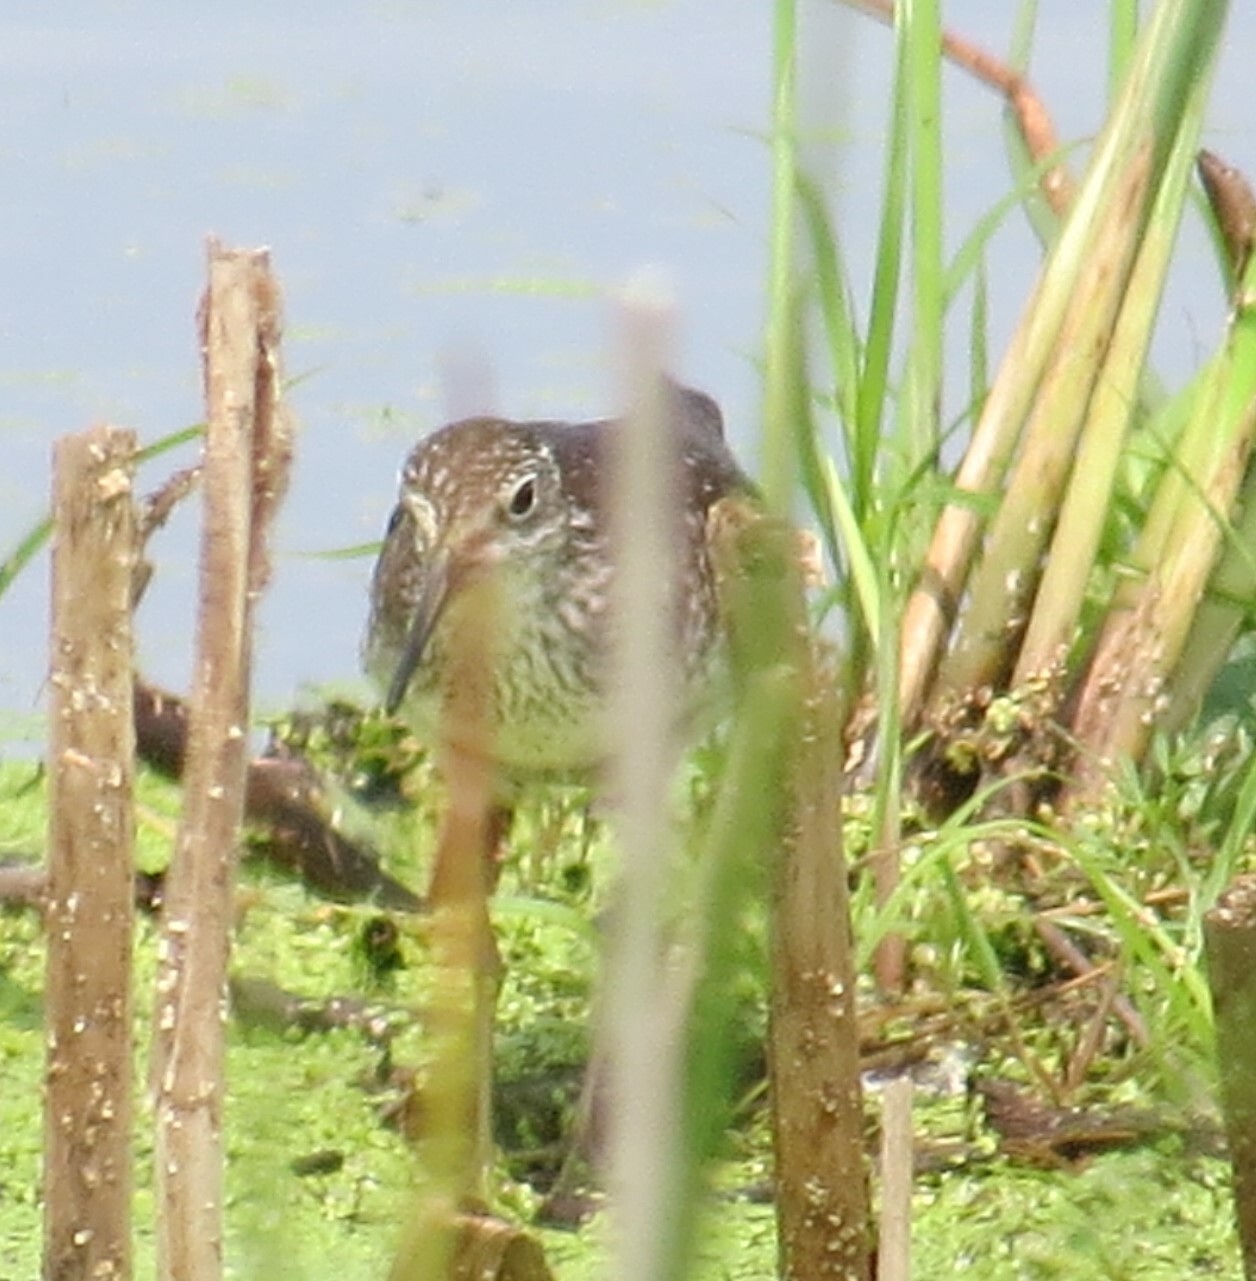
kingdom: Animalia
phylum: Chordata
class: Aves
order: Charadriiformes
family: Scolopacidae
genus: Tringa
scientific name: Tringa solitaria
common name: Solitary sandpiper
